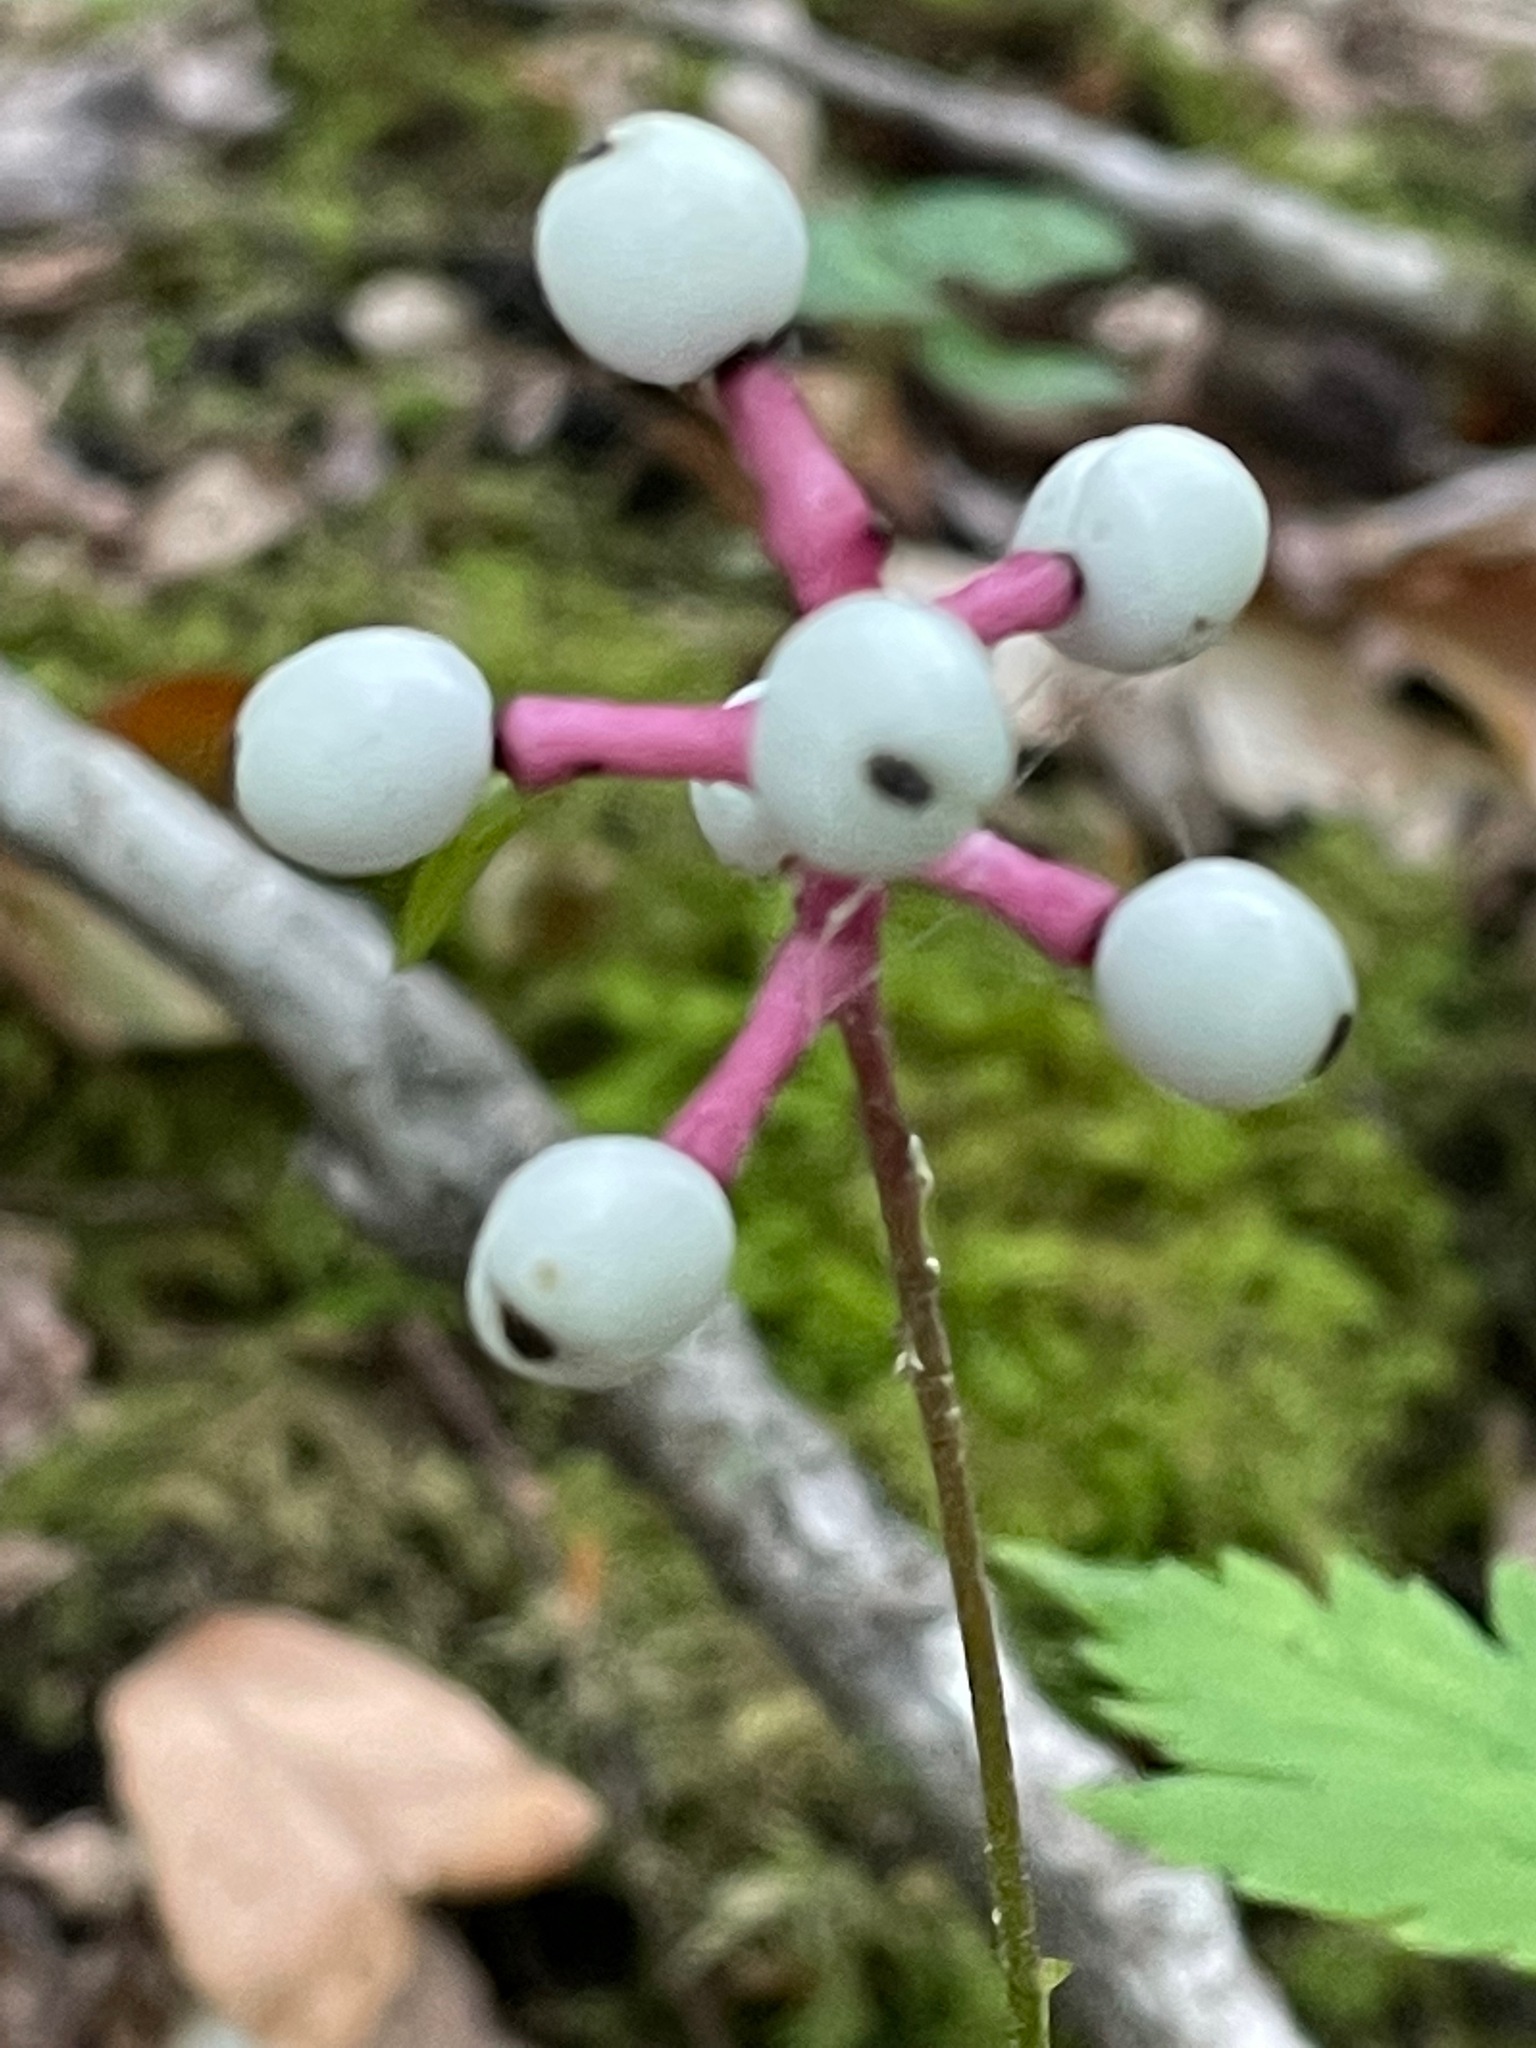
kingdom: Plantae
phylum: Tracheophyta
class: Magnoliopsida
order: Ranunculales
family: Ranunculaceae
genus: Actaea
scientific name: Actaea pachypoda
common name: Doll's-eyes
